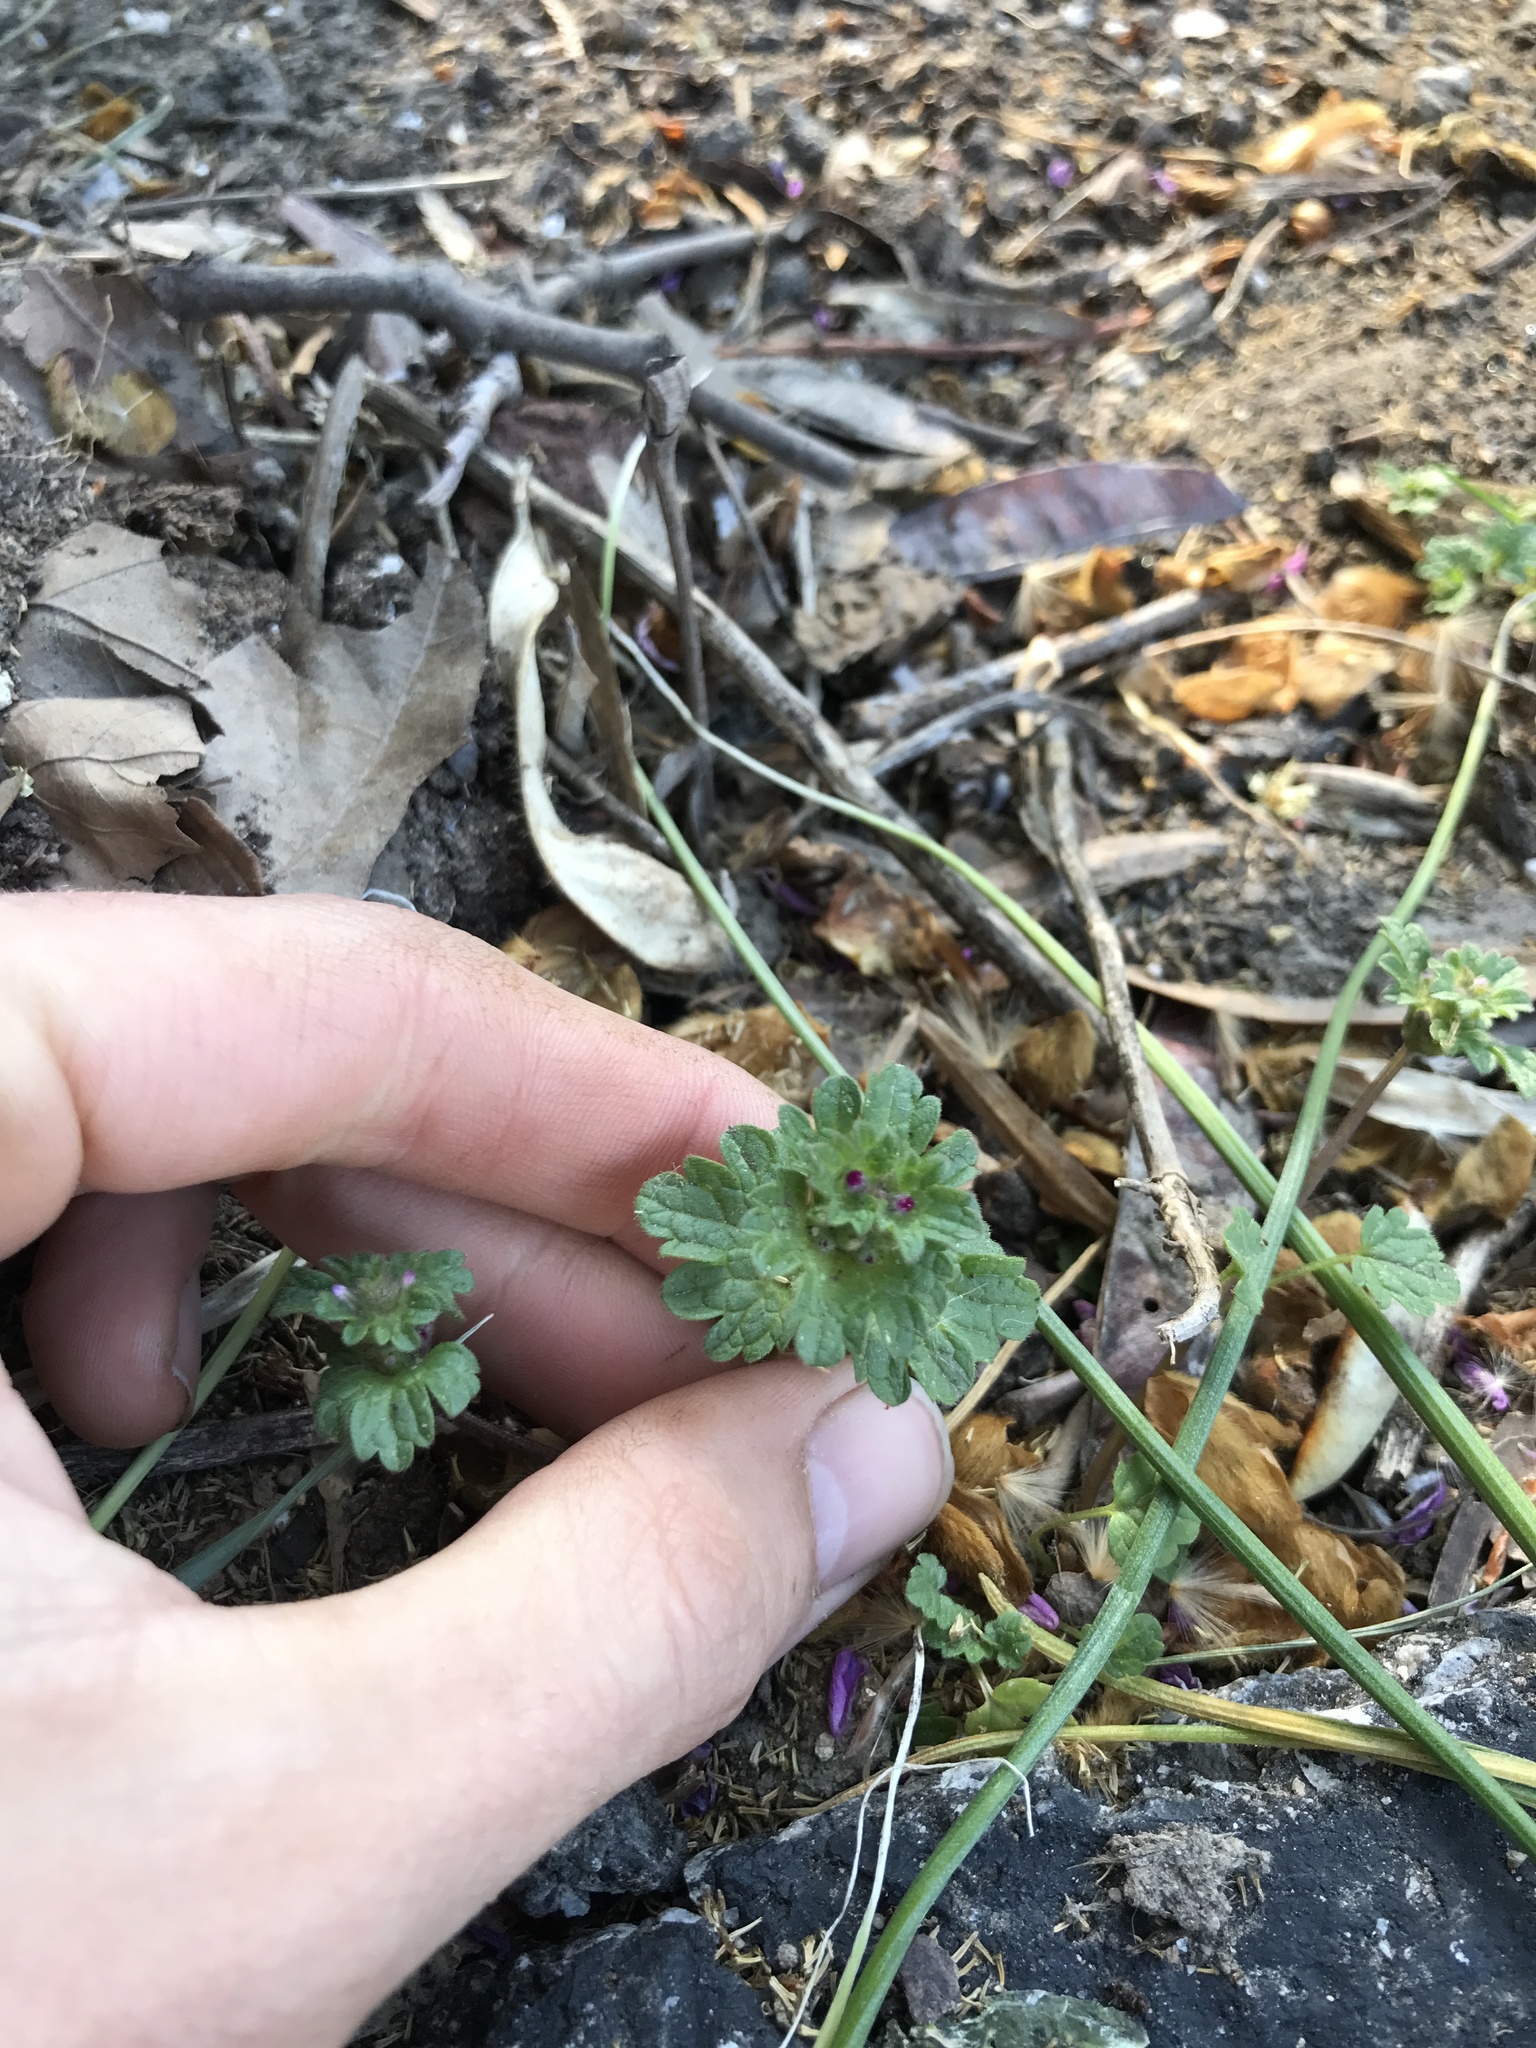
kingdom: Plantae
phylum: Tracheophyta
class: Magnoliopsida
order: Lamiales
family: Lamiaceae
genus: Lamium
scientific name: Lamium amplexicaule
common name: Henbit dead-nettle
